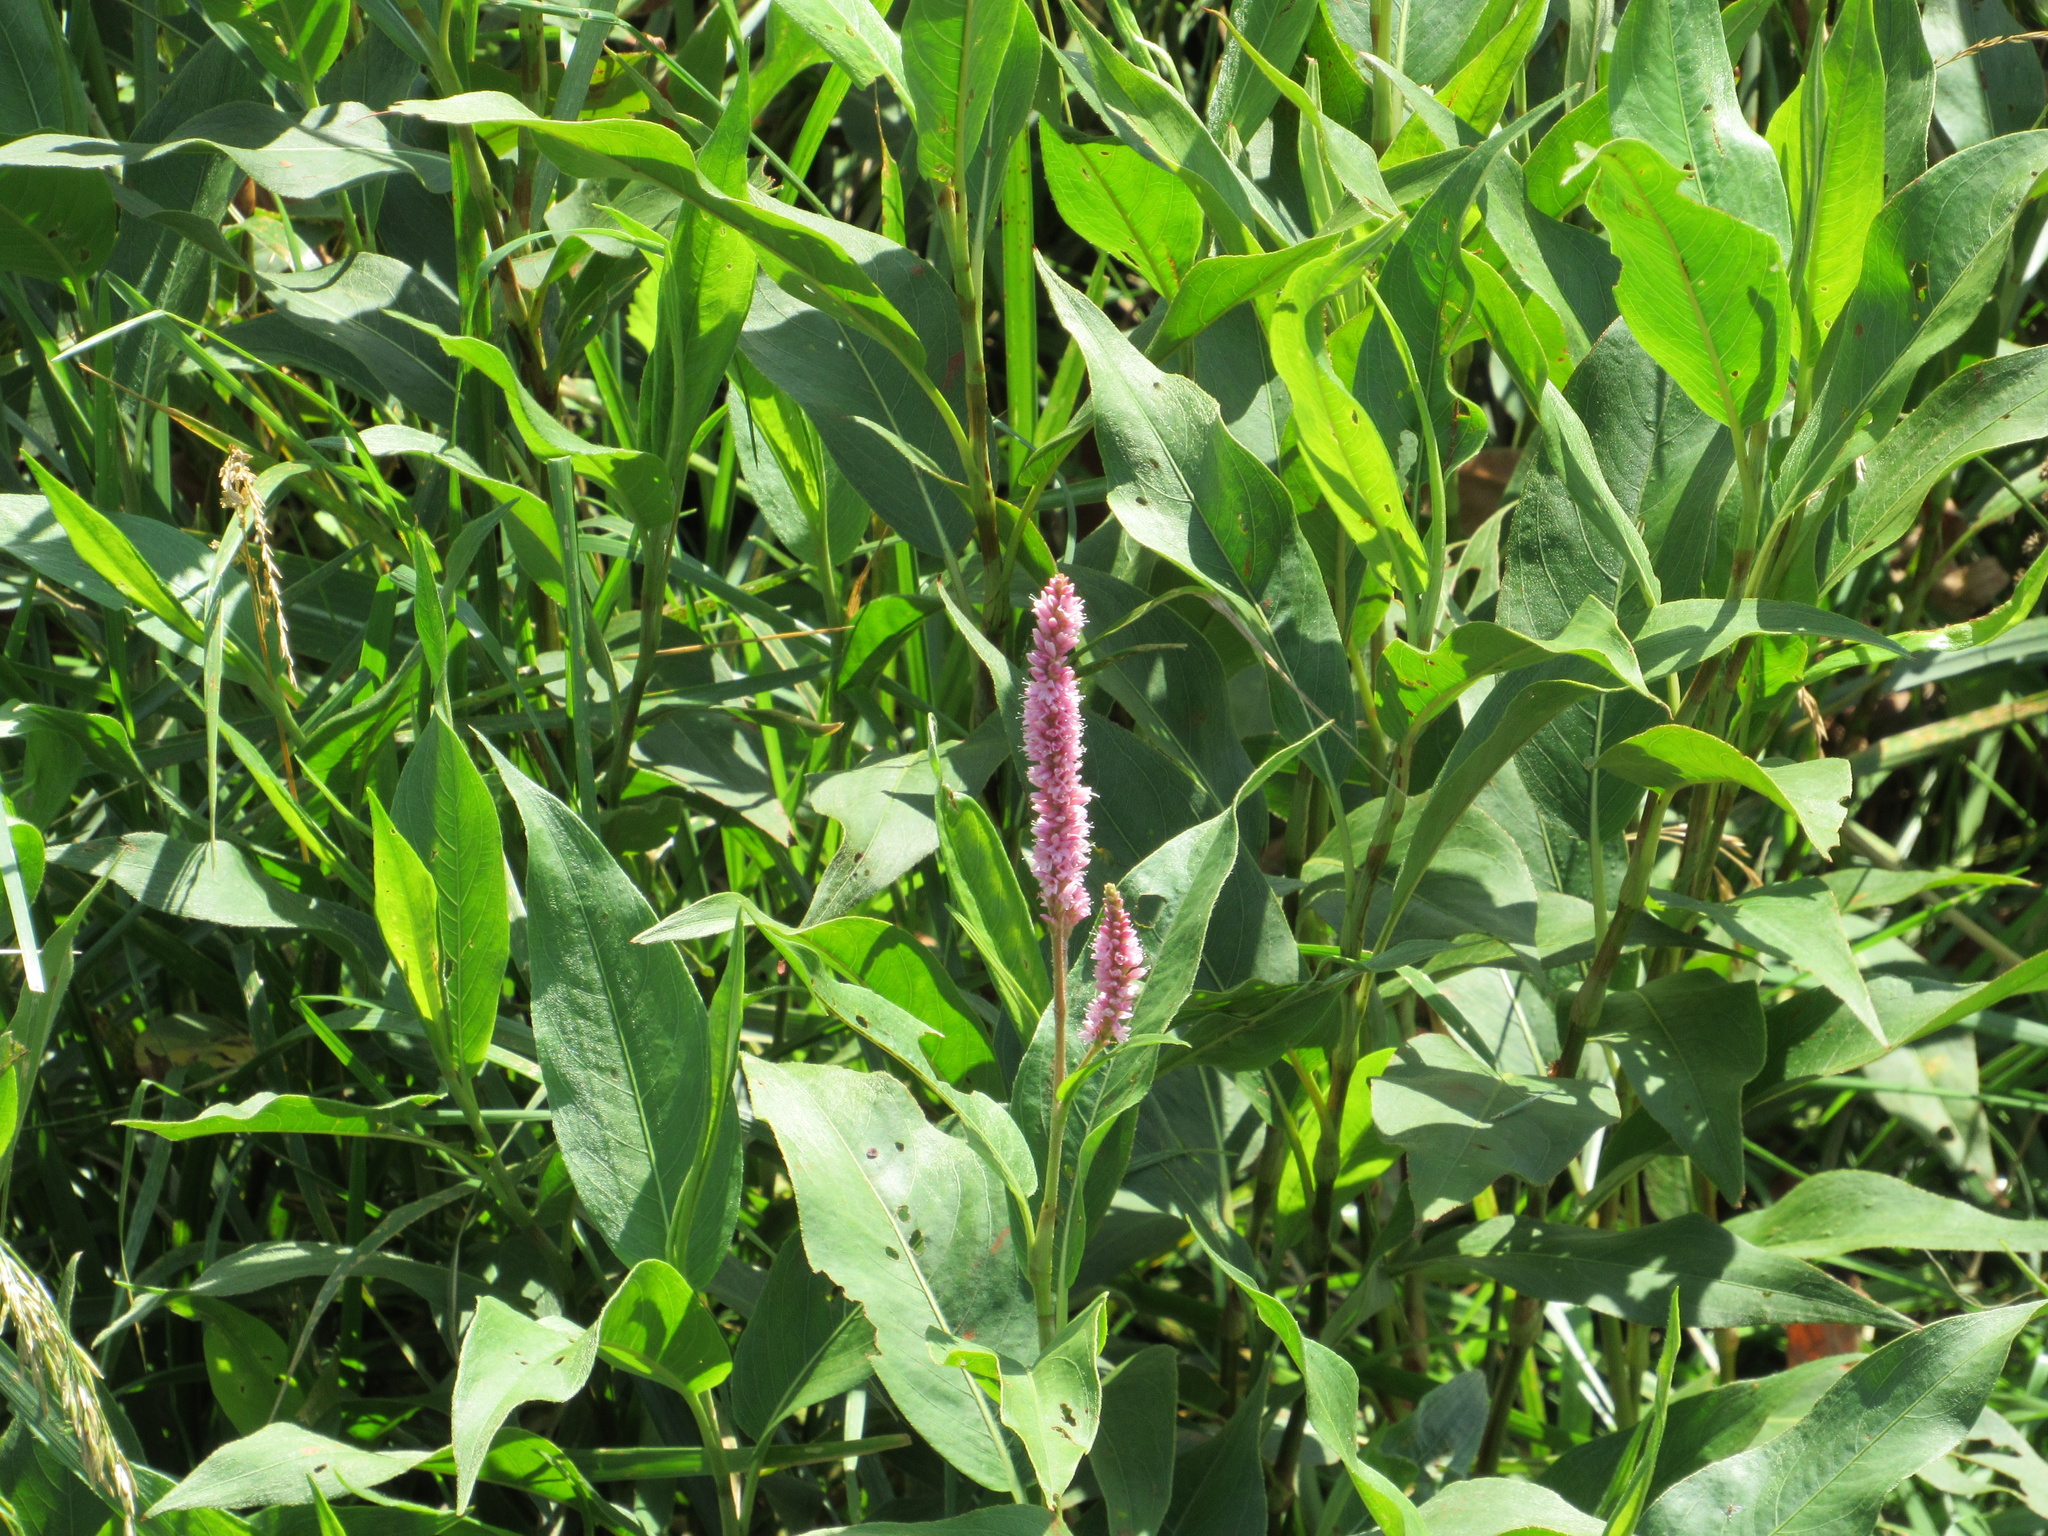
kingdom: Plantae
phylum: Tracheophyta
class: Magnoliopsida
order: Caryophyllales
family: Polygonaceae
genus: Persicaria
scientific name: Persicaria amphibia
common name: Amphibious bistort
